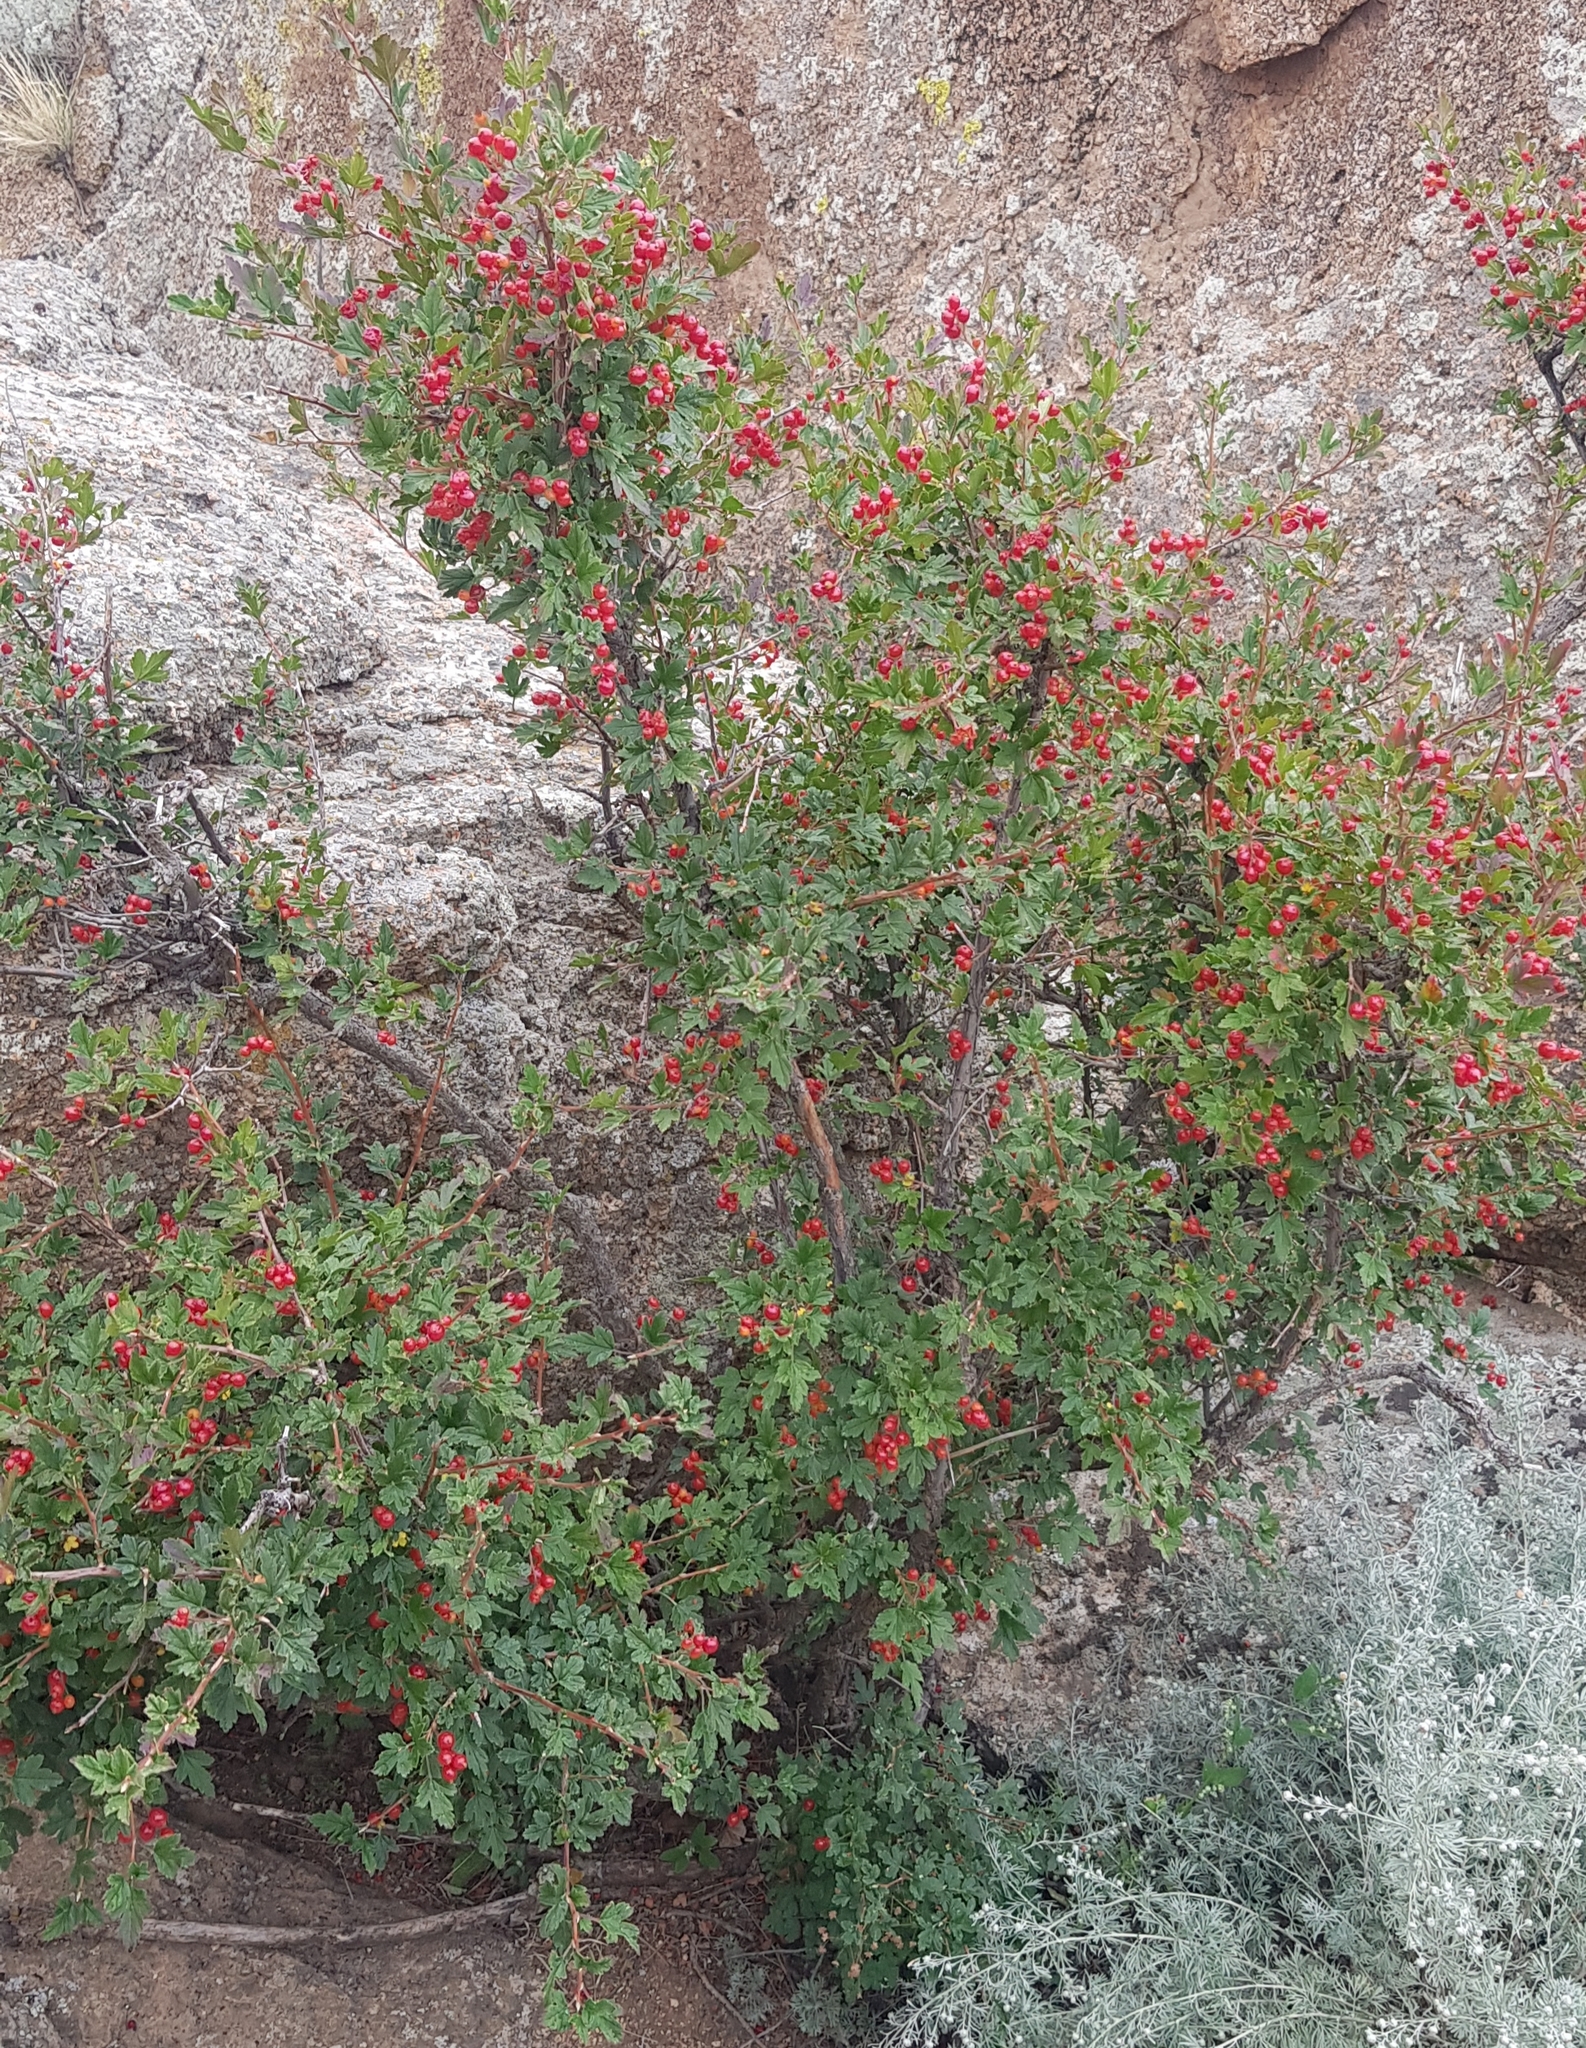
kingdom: Plantae
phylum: Tracheophyta
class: Magnoliopsida
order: Saxifragales
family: Grossulariaceae
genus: Ribes
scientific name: Ribes diacanthum
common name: Siberian currant
